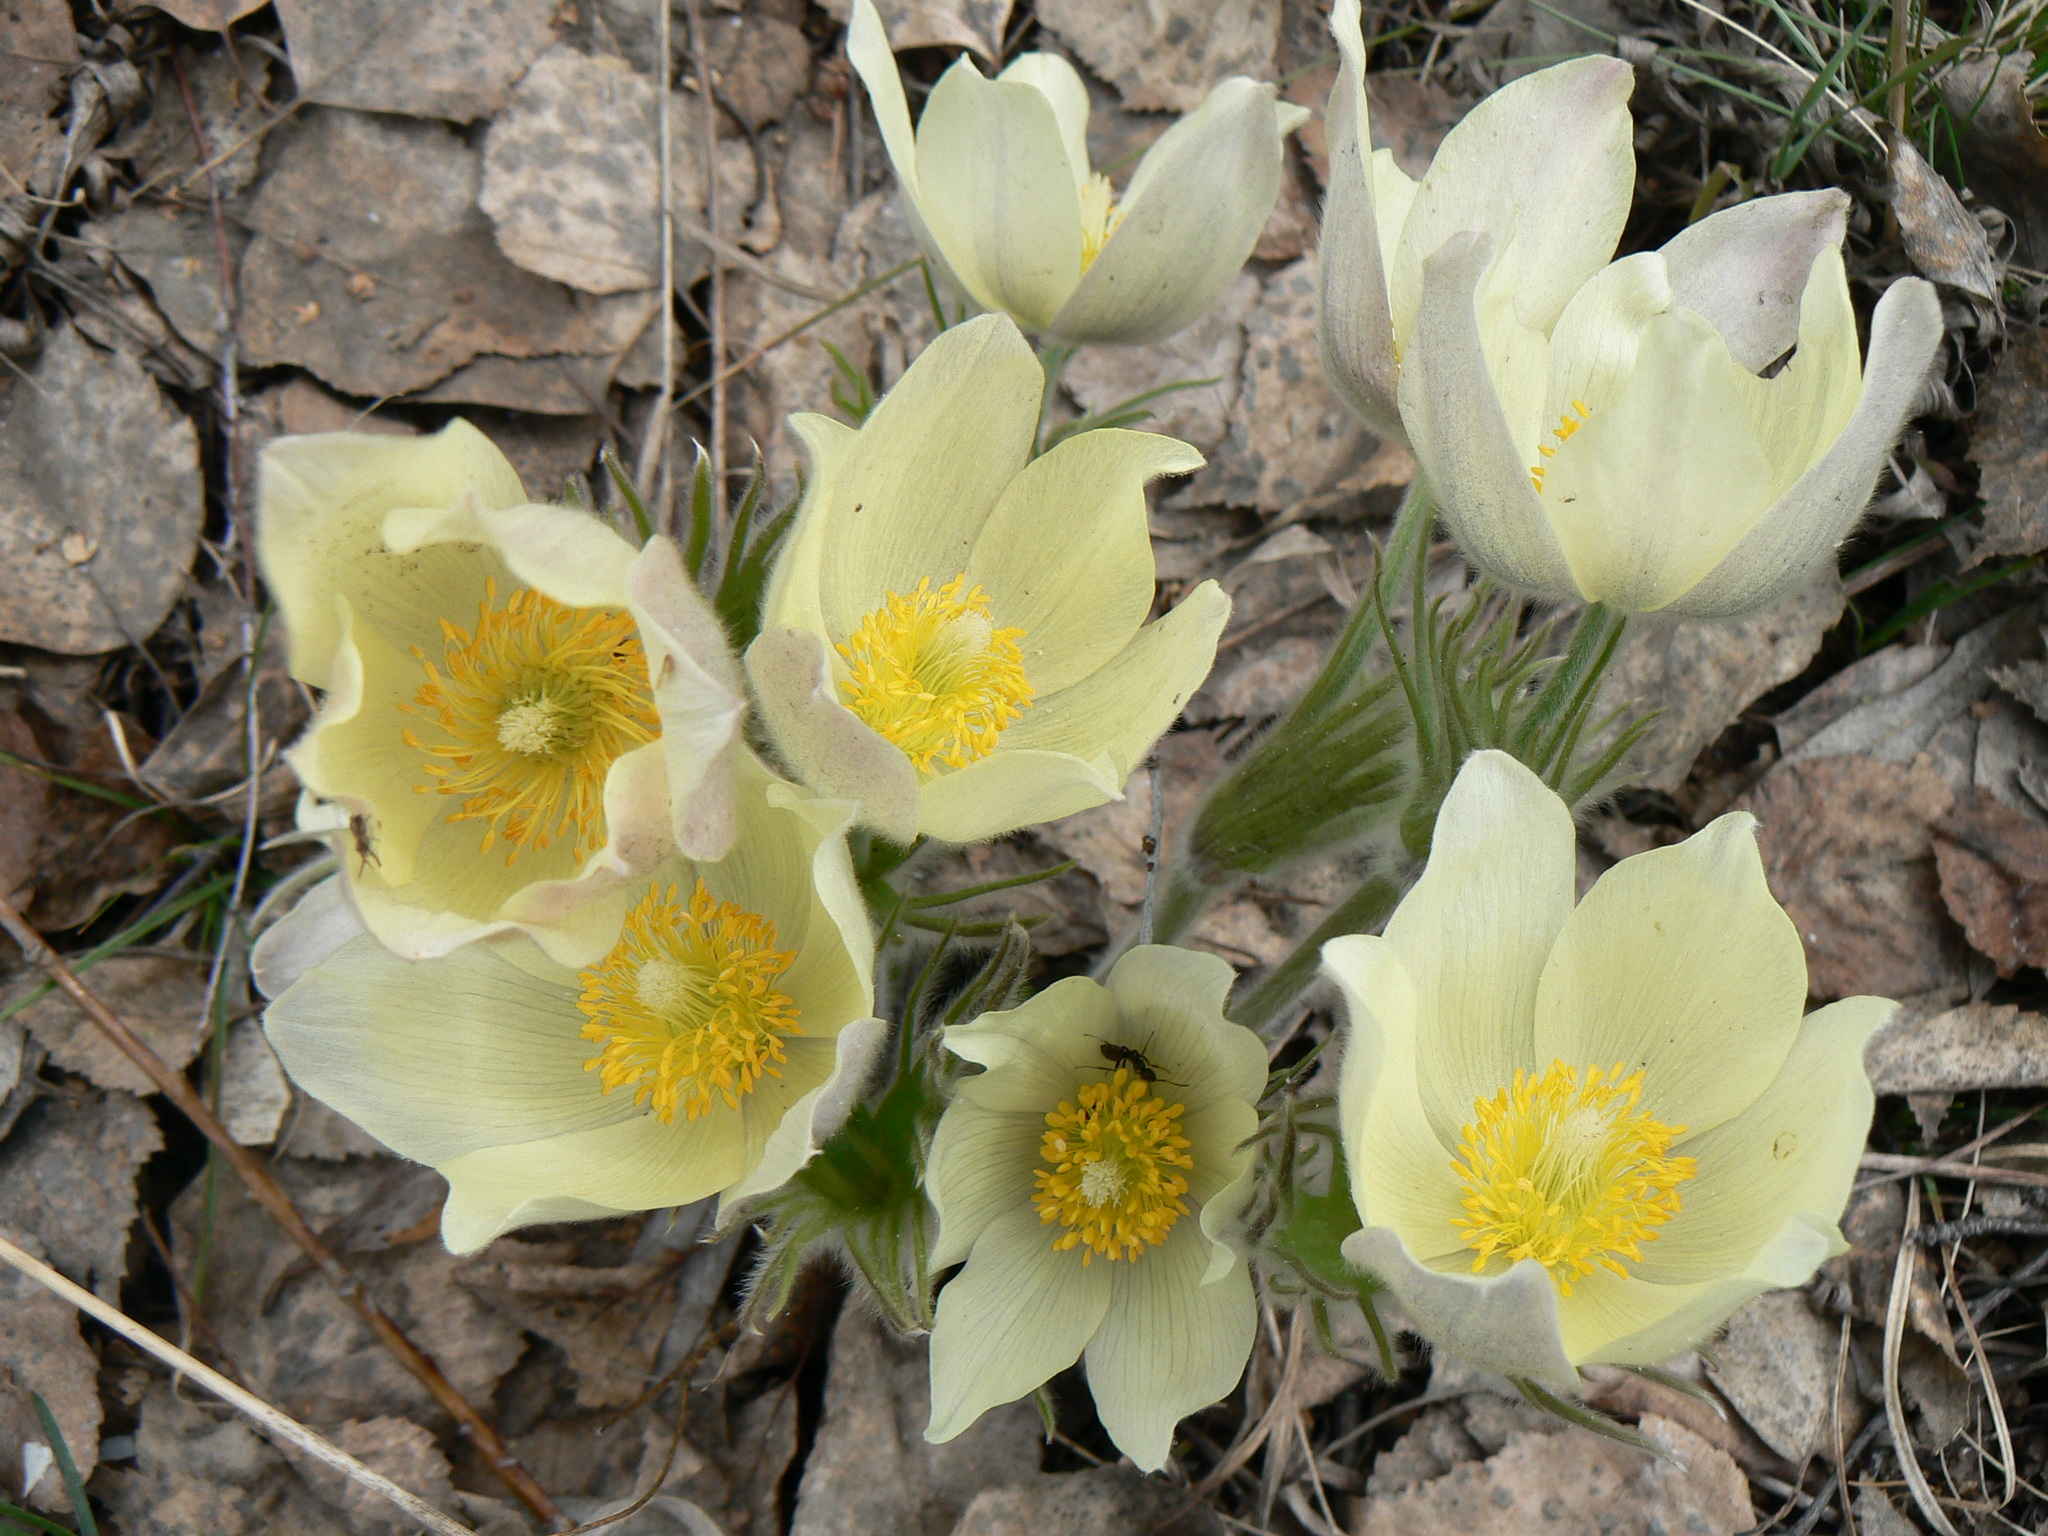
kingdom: Plantae
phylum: Tracheophyta
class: Magnoliopsida
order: Ranunculales
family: Ranunculaceae
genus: Pulsatilla
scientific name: Pulsatilla patens
